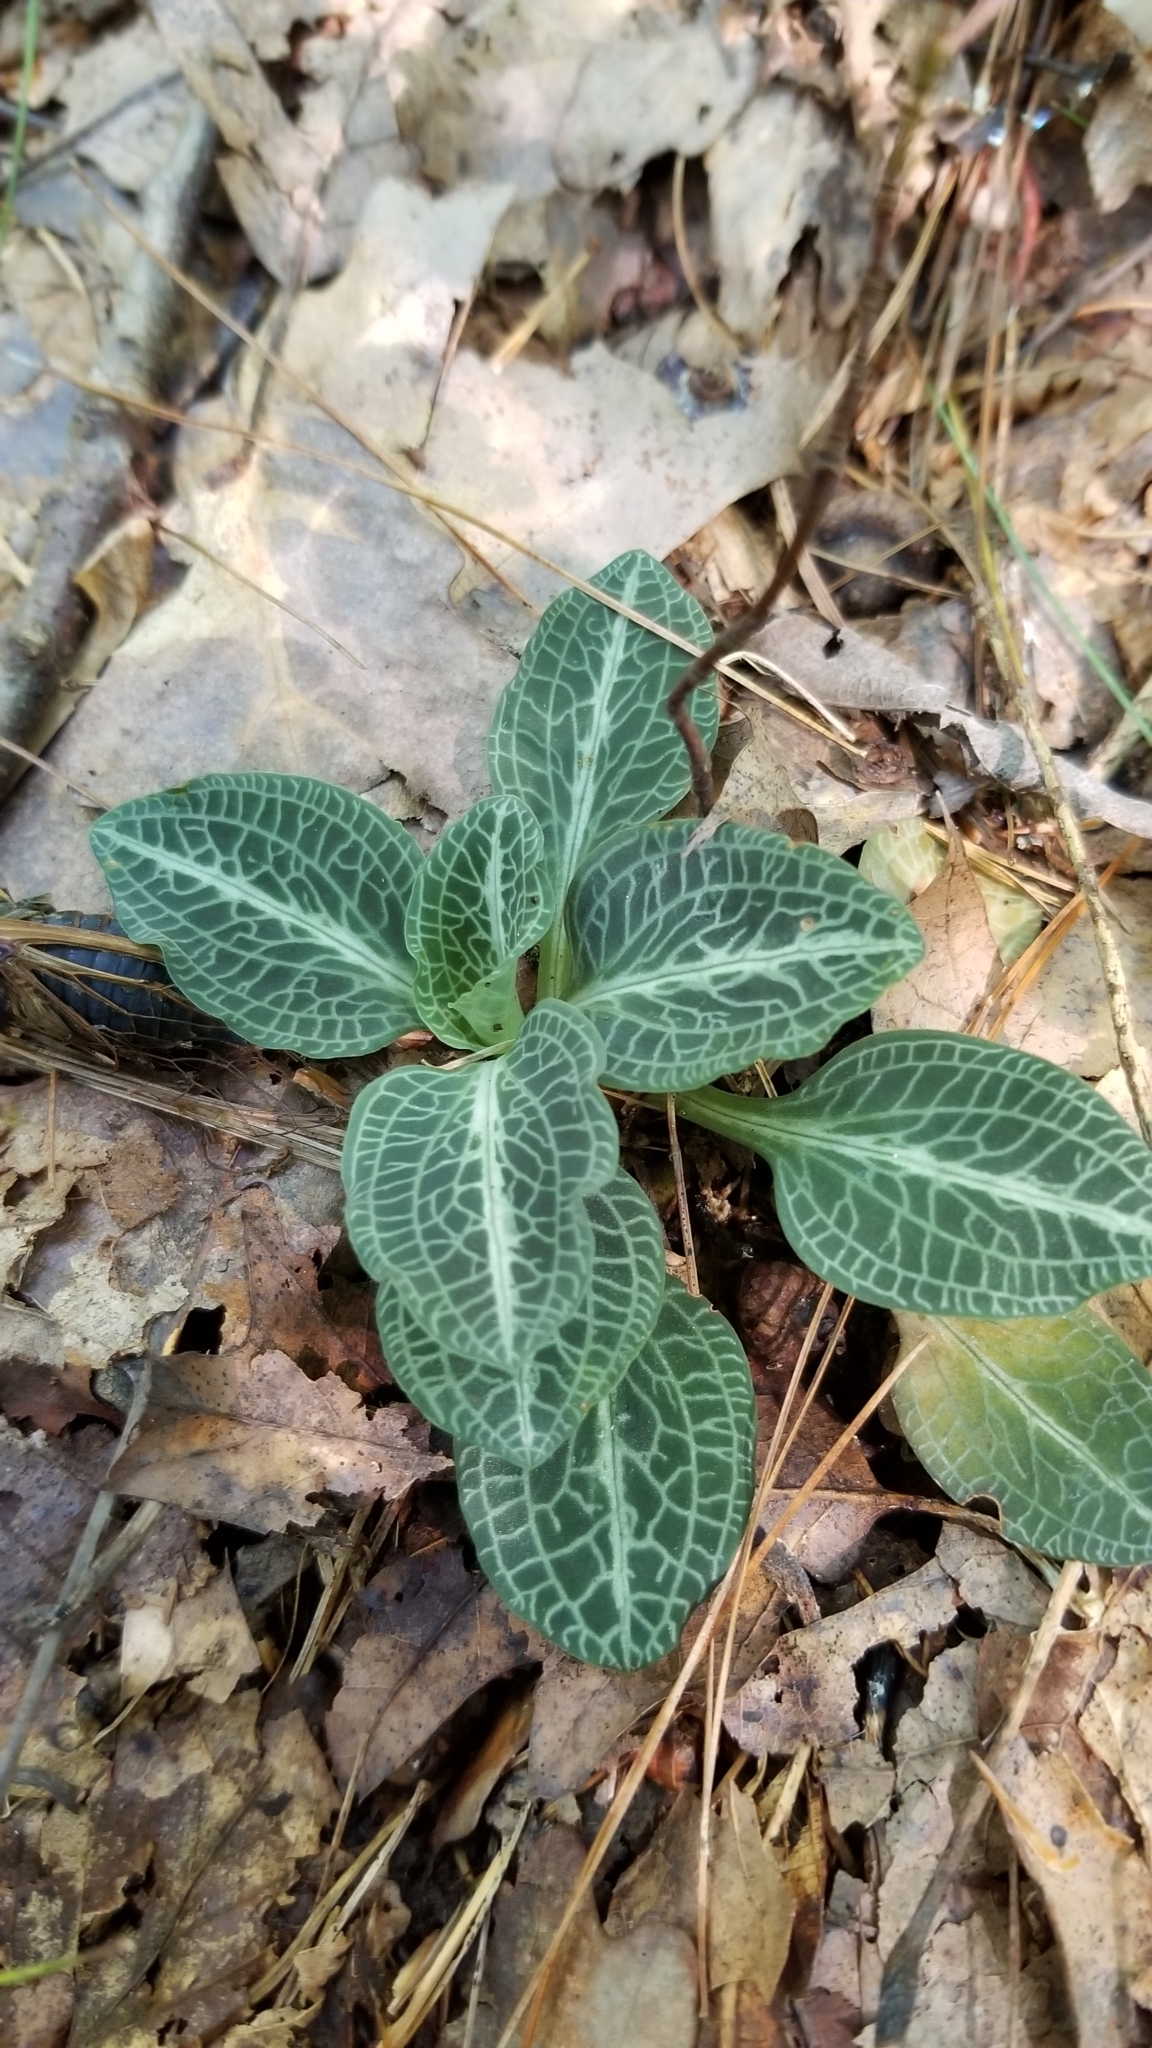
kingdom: Plantae
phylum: Tracheophyta
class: Liliopsida
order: Asparagales
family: Orchidaceae
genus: Goodyera
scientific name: Goodyera pubescens
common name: Downy rattlesnake-plantain
